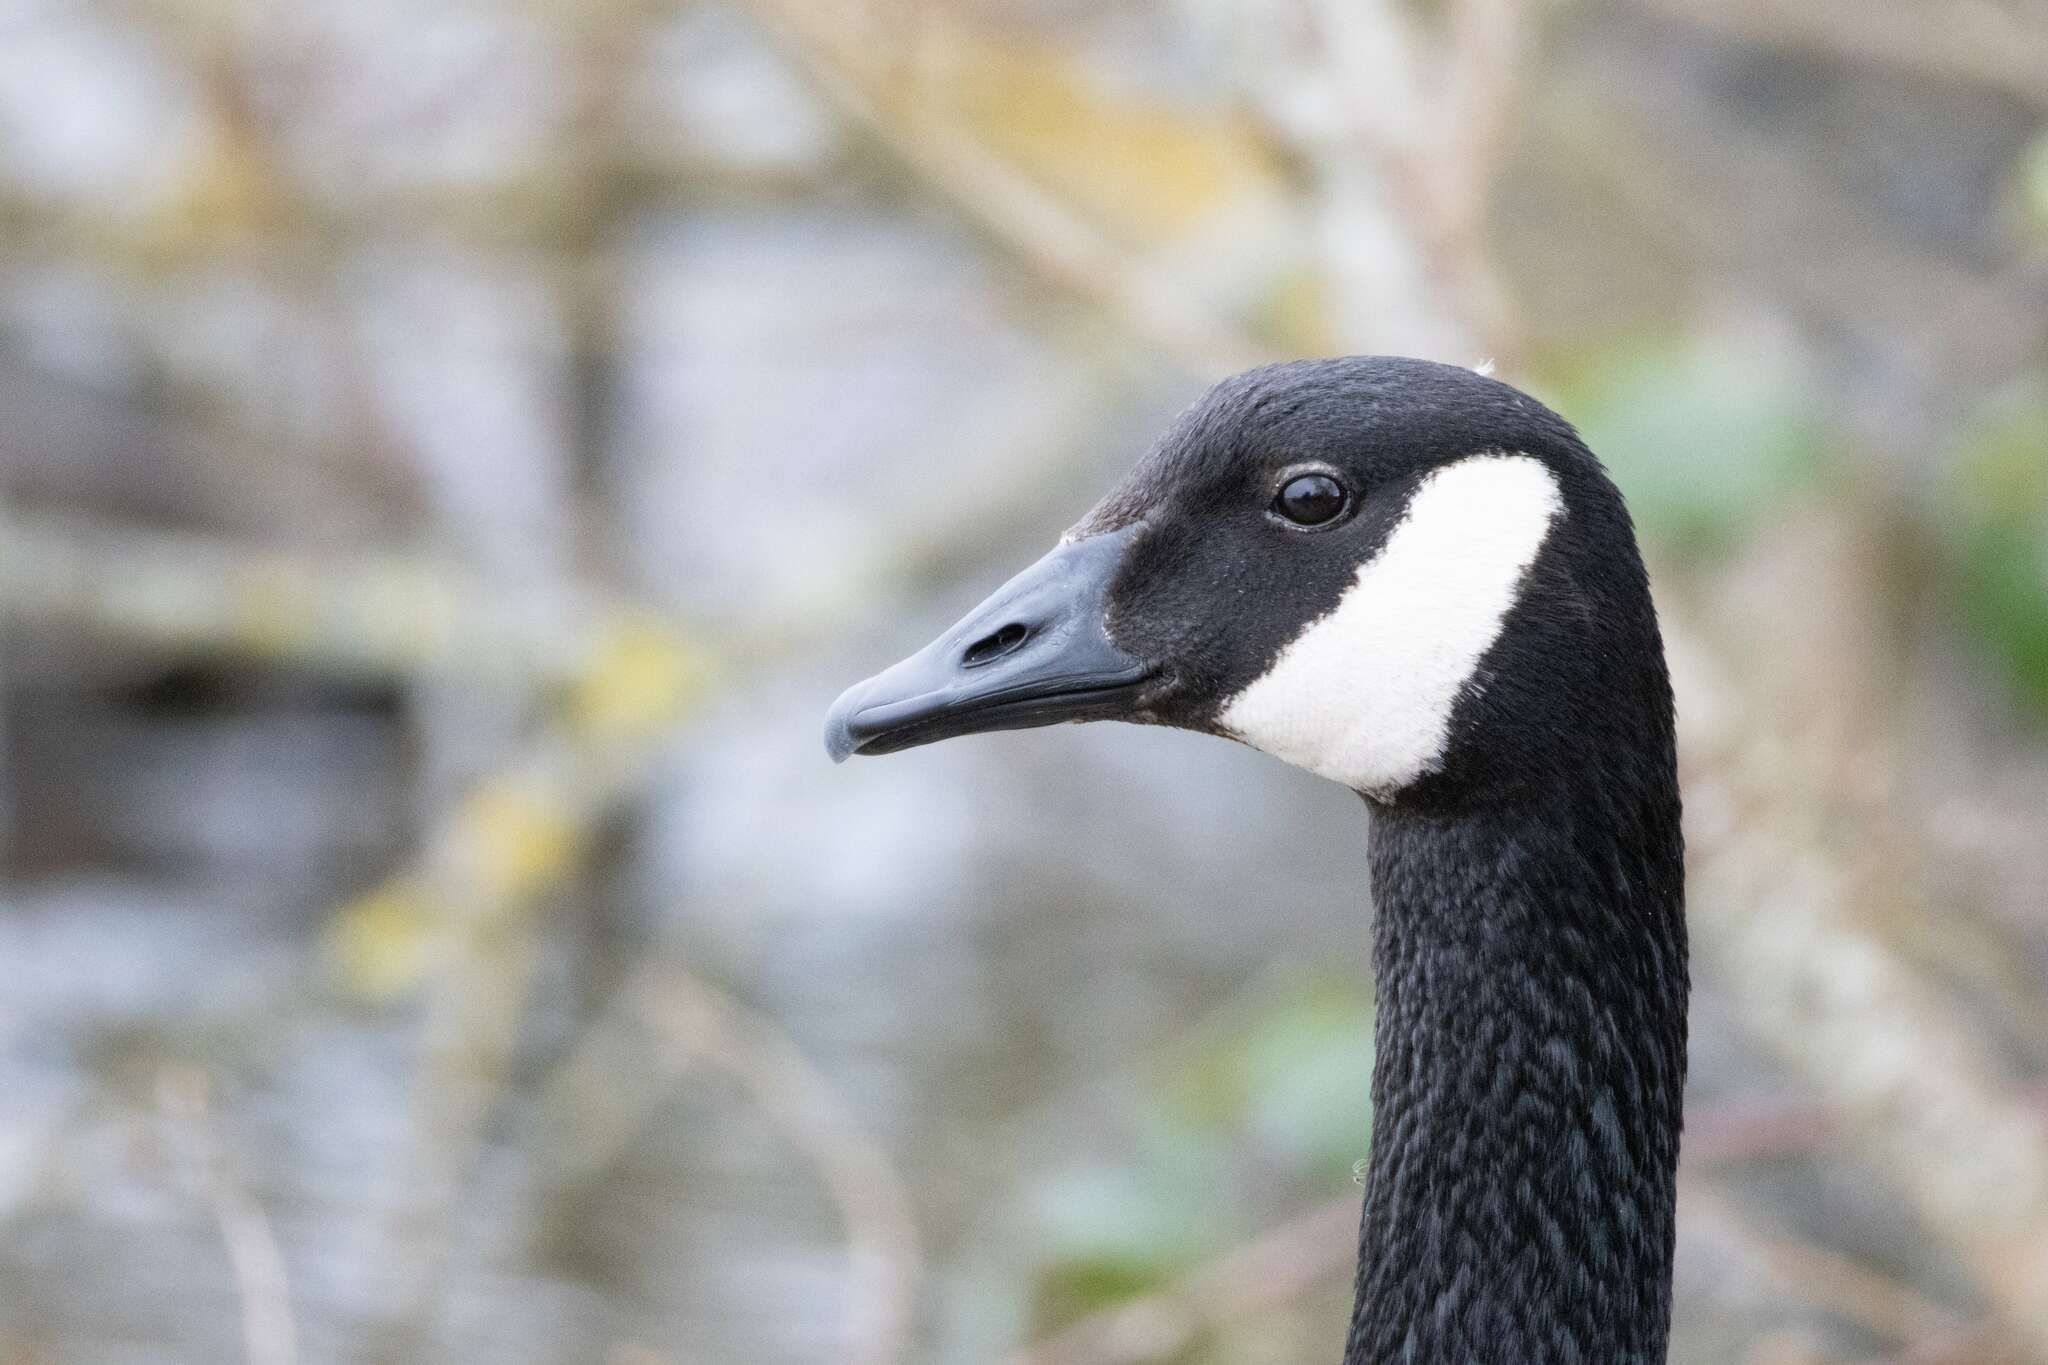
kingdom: Animalia
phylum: Chordata
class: Aves
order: Anseriformes
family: Anatidae
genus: Branta
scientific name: Branta canadensis
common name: Canada goose
